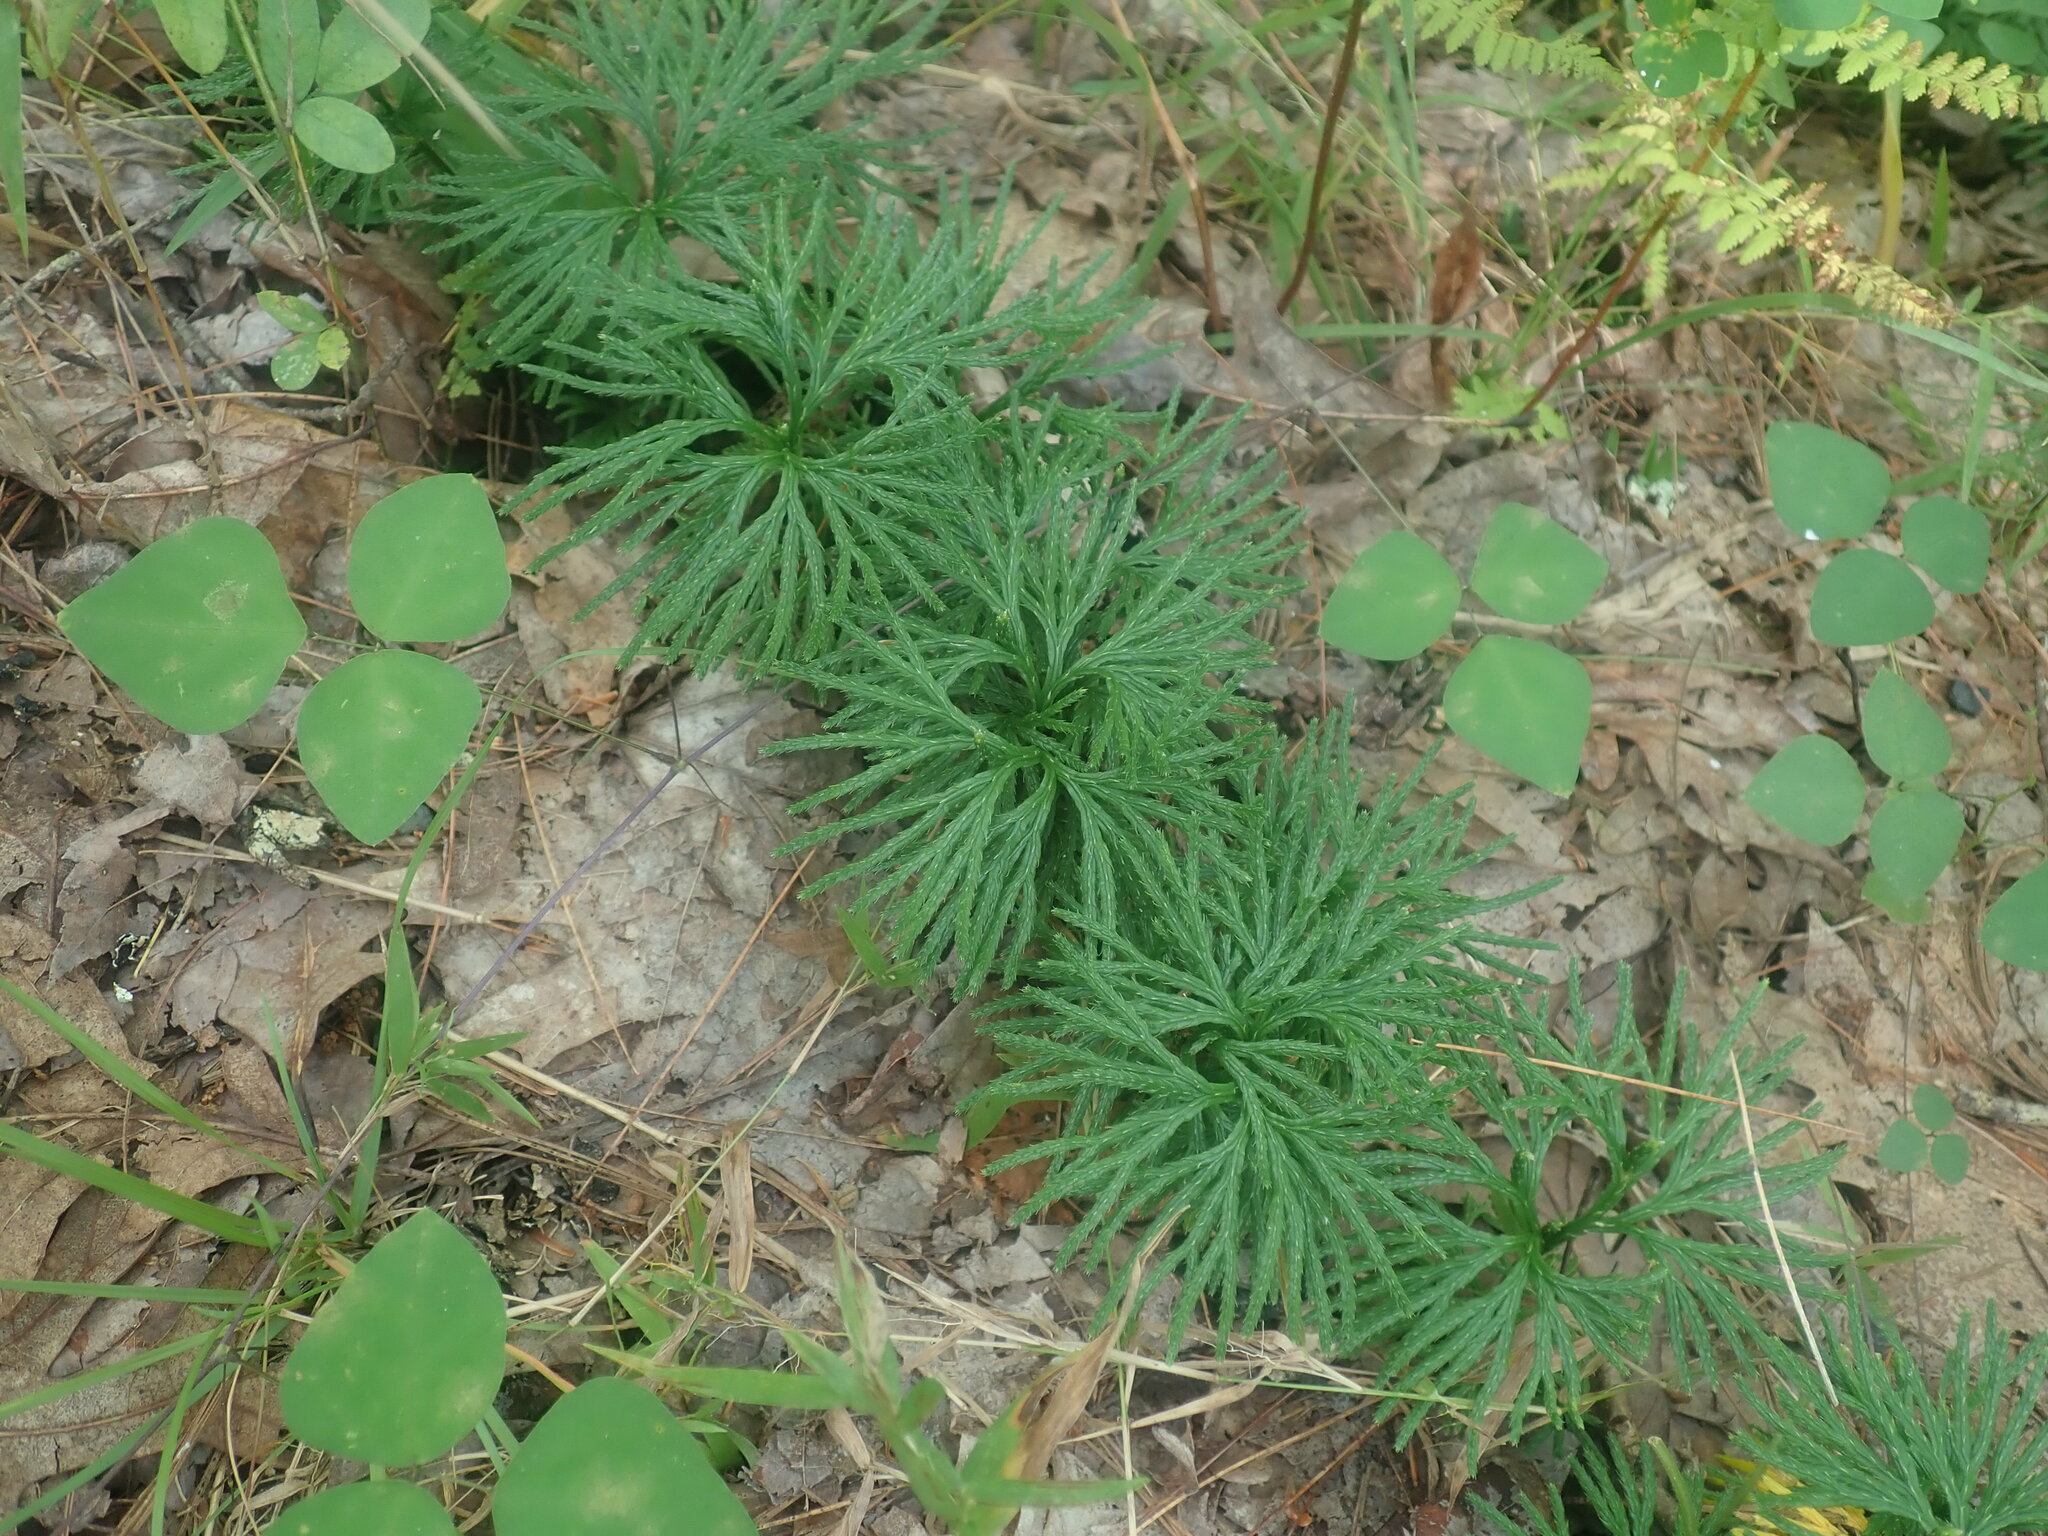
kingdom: Plantae
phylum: Tracheophyta
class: Lycopodiopsida
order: Lycopodiales
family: Lycopodiaceae
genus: Diphasiastrum
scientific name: Diphasiastrum digitatum
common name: Southern running-pine
